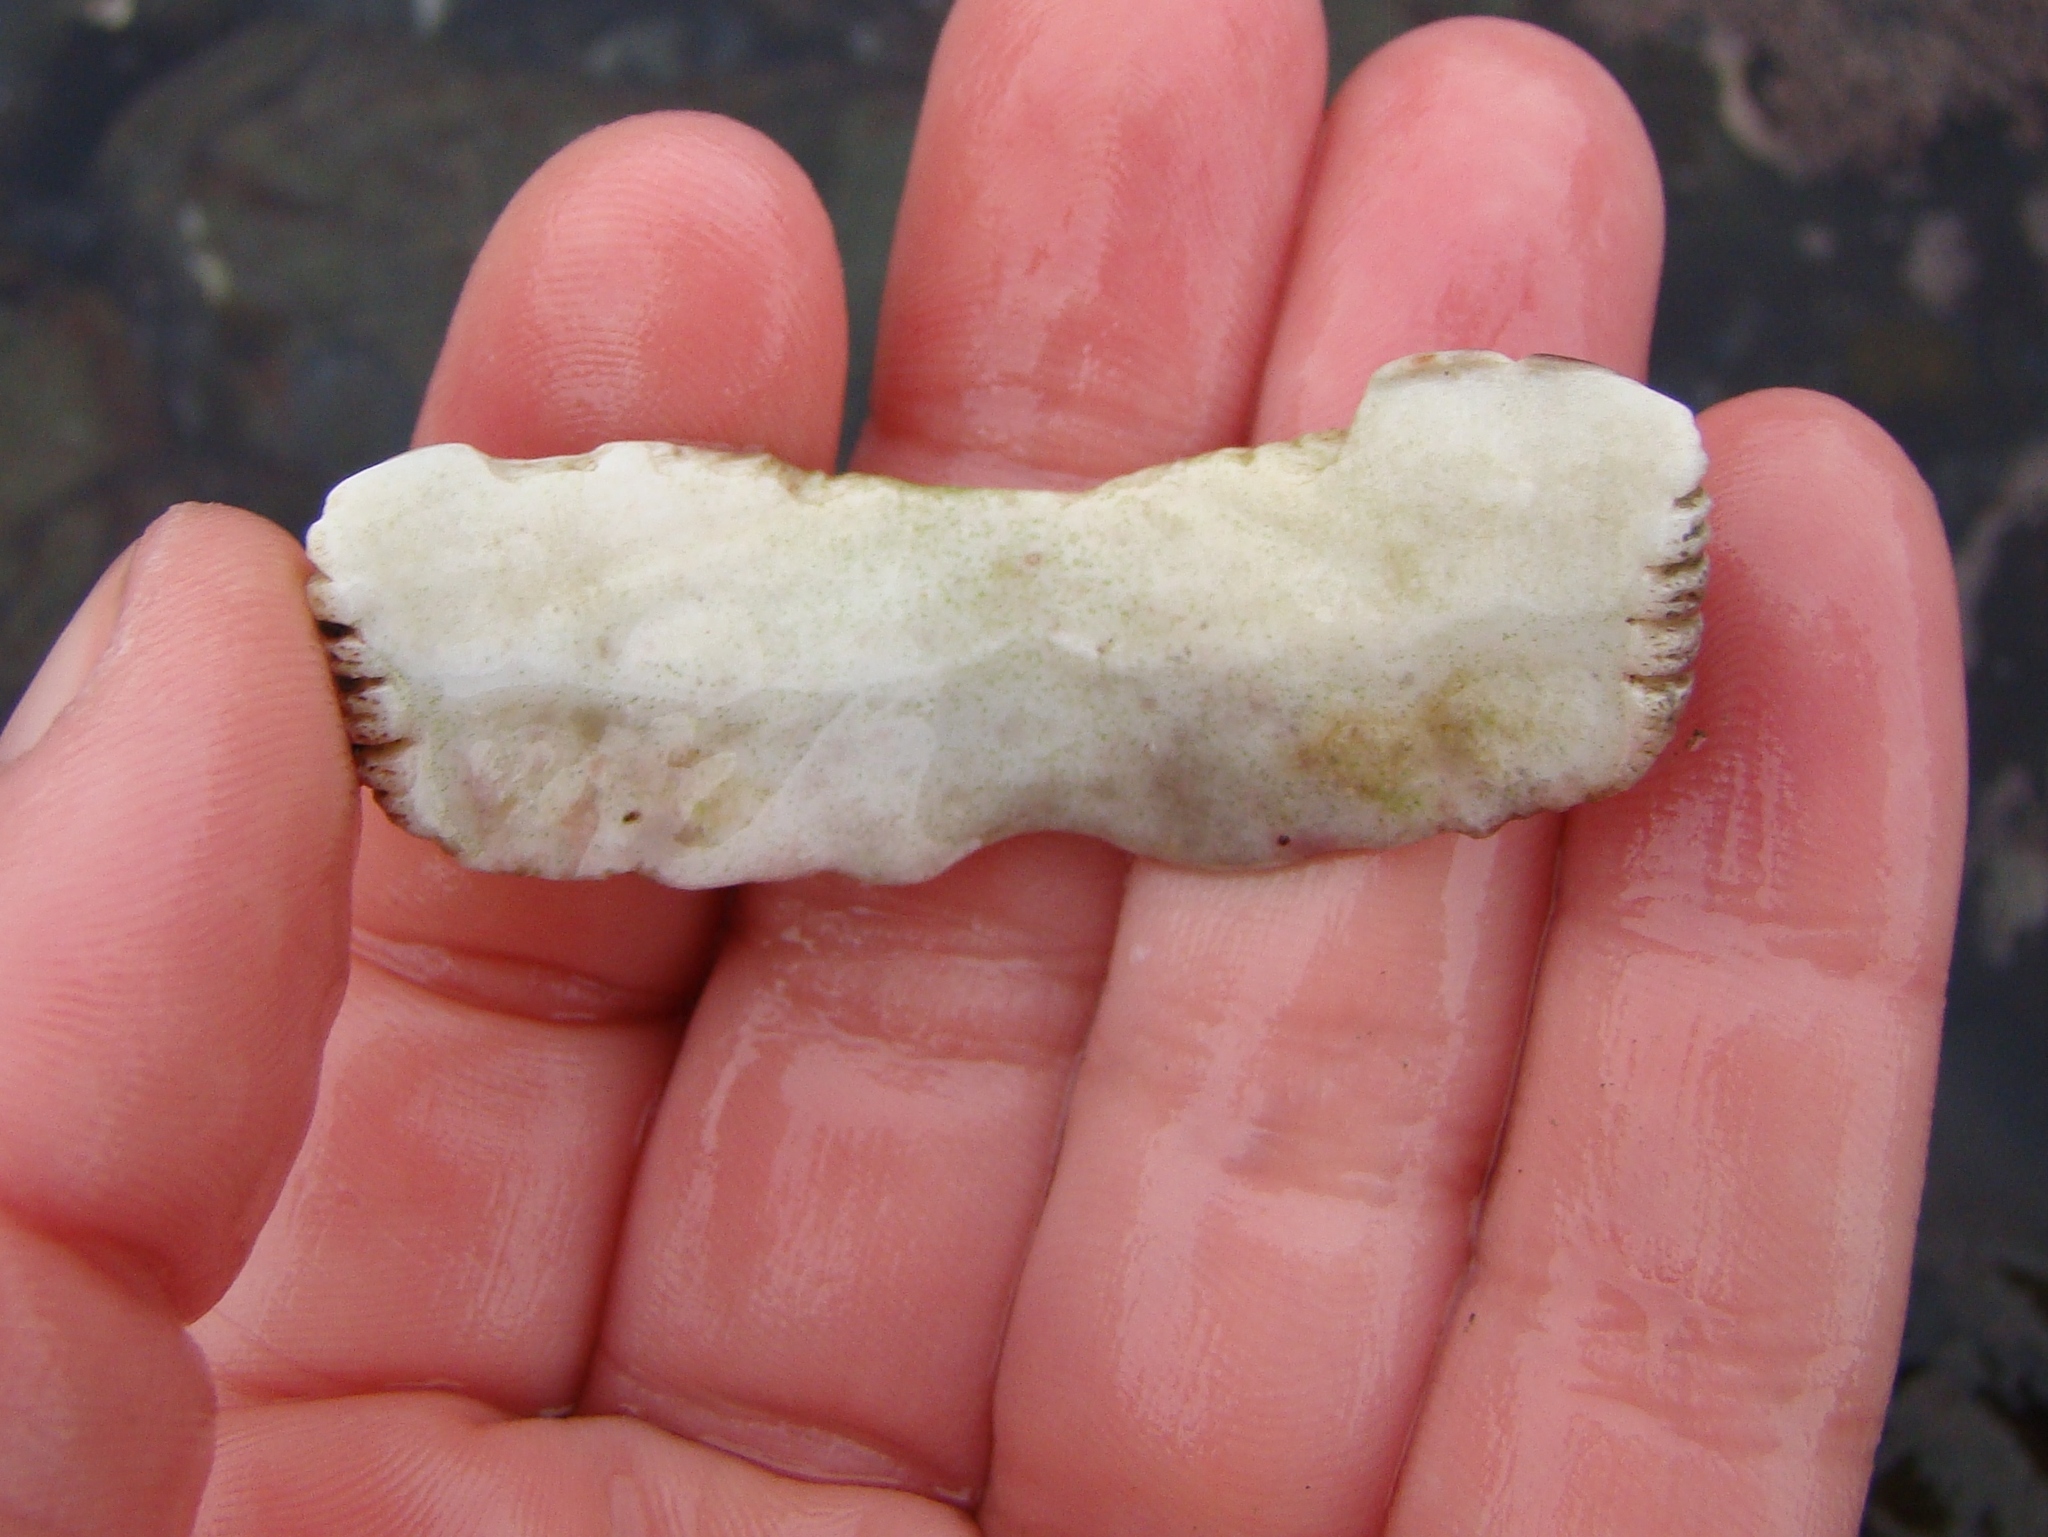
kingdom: Animalia
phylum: Mollusca
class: Polyplacophora
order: Callochitonida
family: Callochitonidae
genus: Eudoxochiton
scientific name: Eudoxochiton nobilis
